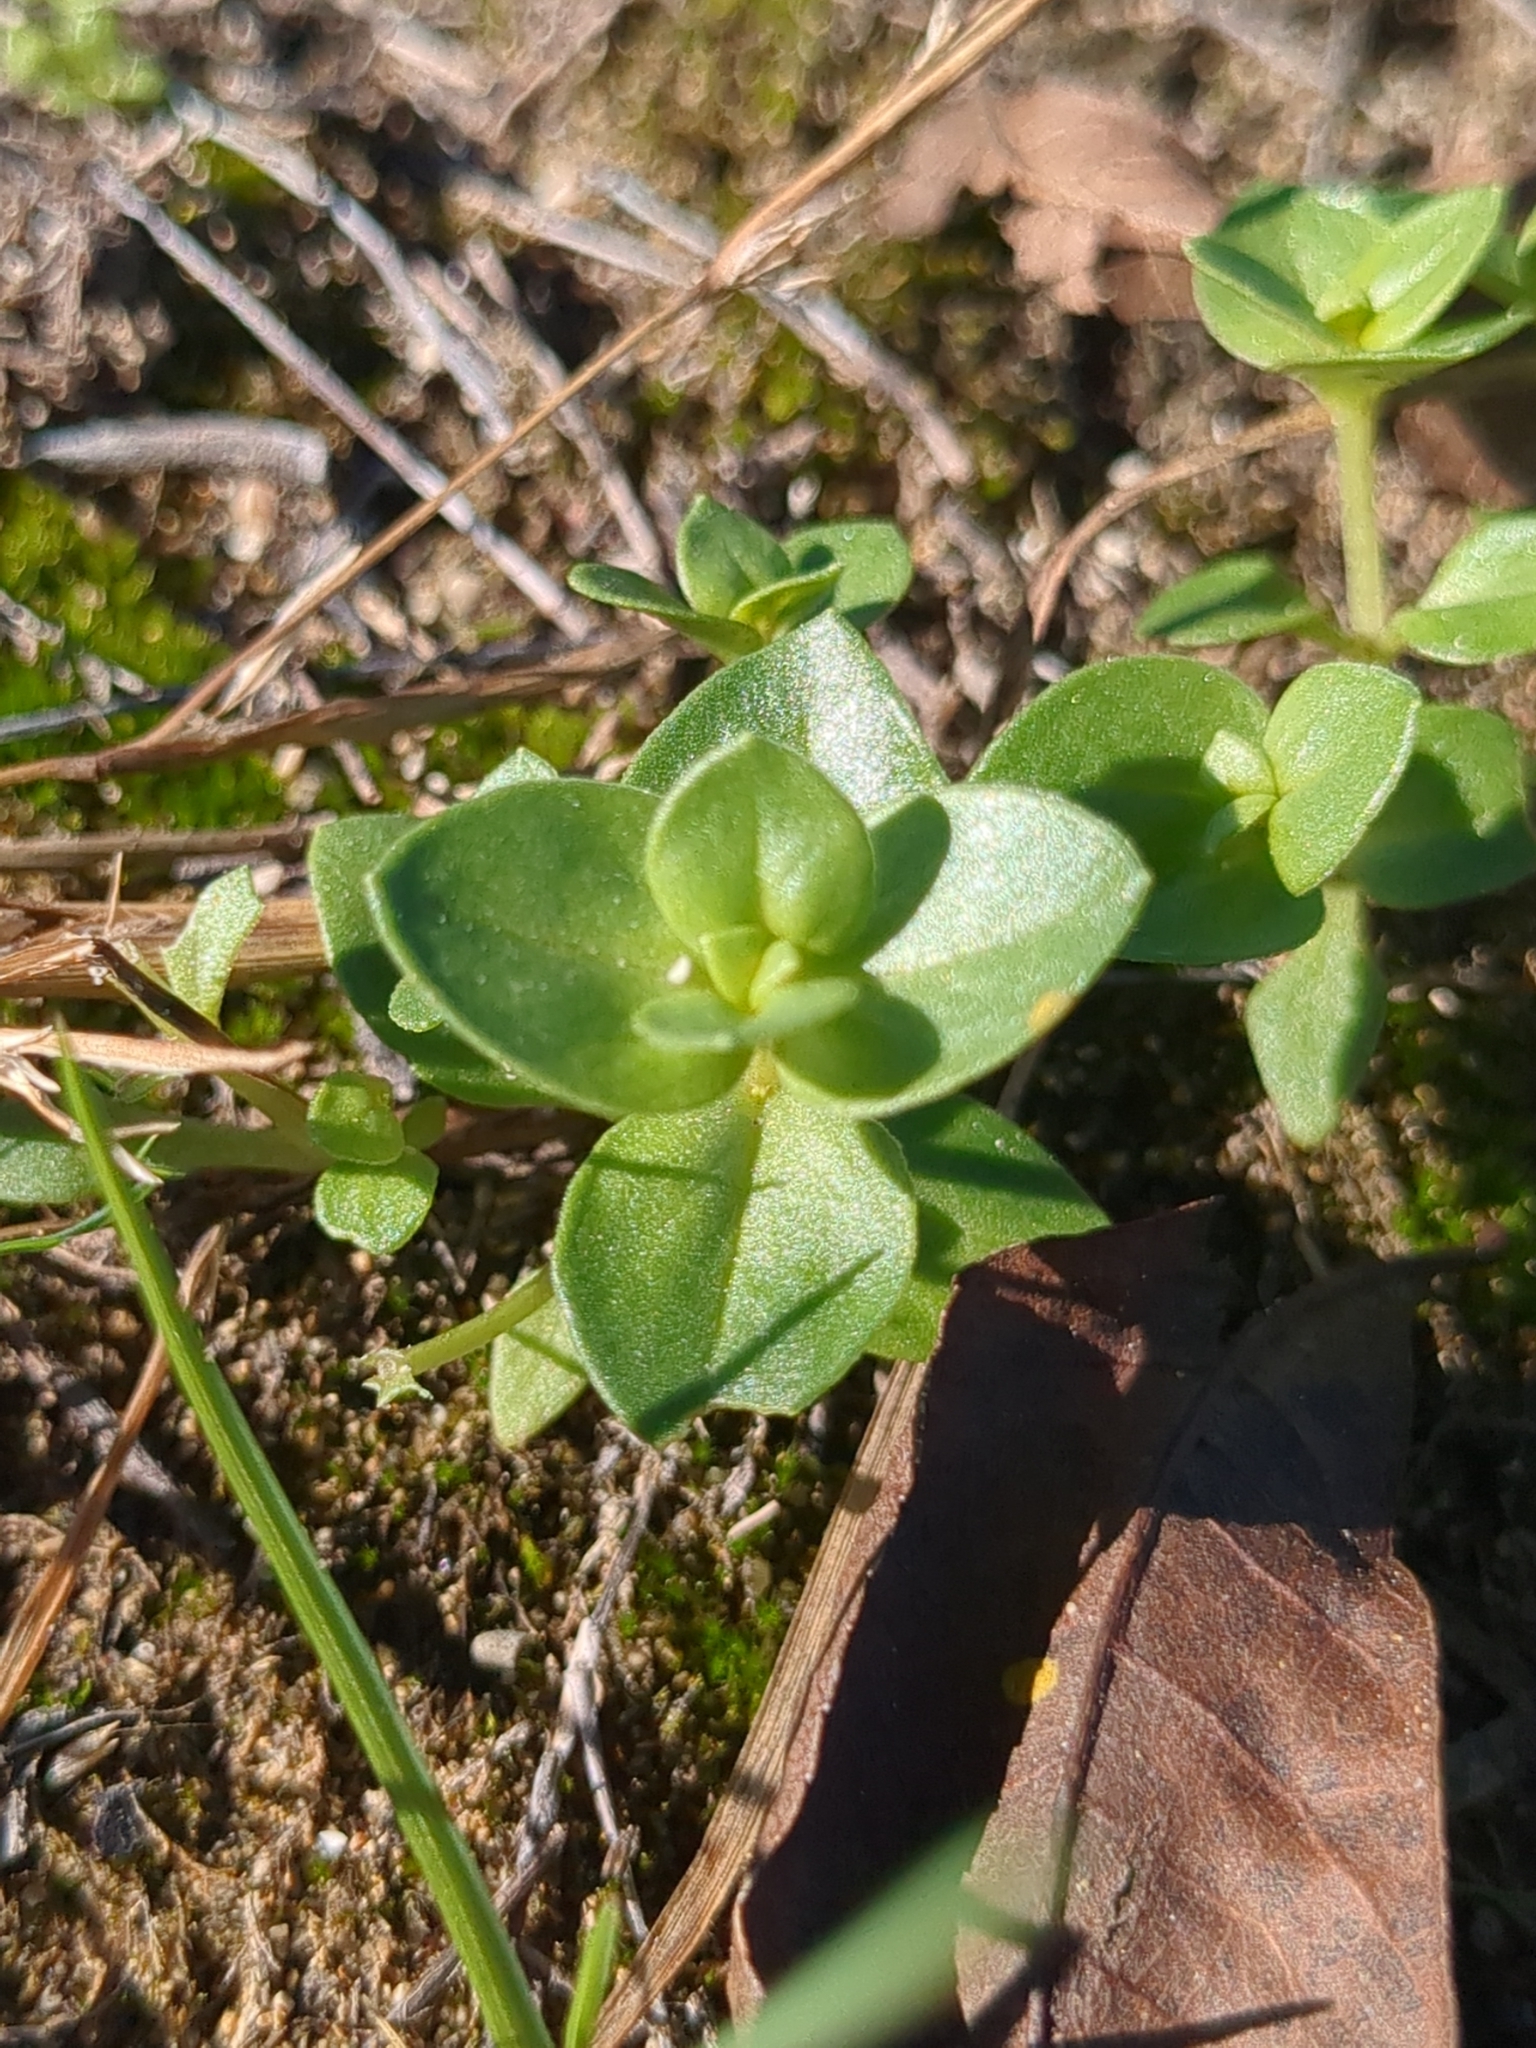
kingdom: Plantae
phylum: Tracheophyta
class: Magnoliopsida
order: Ericales
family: Primulaceae
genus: Lysimachia
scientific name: Lysimachia arvensis
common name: Scarlet pimpernel
